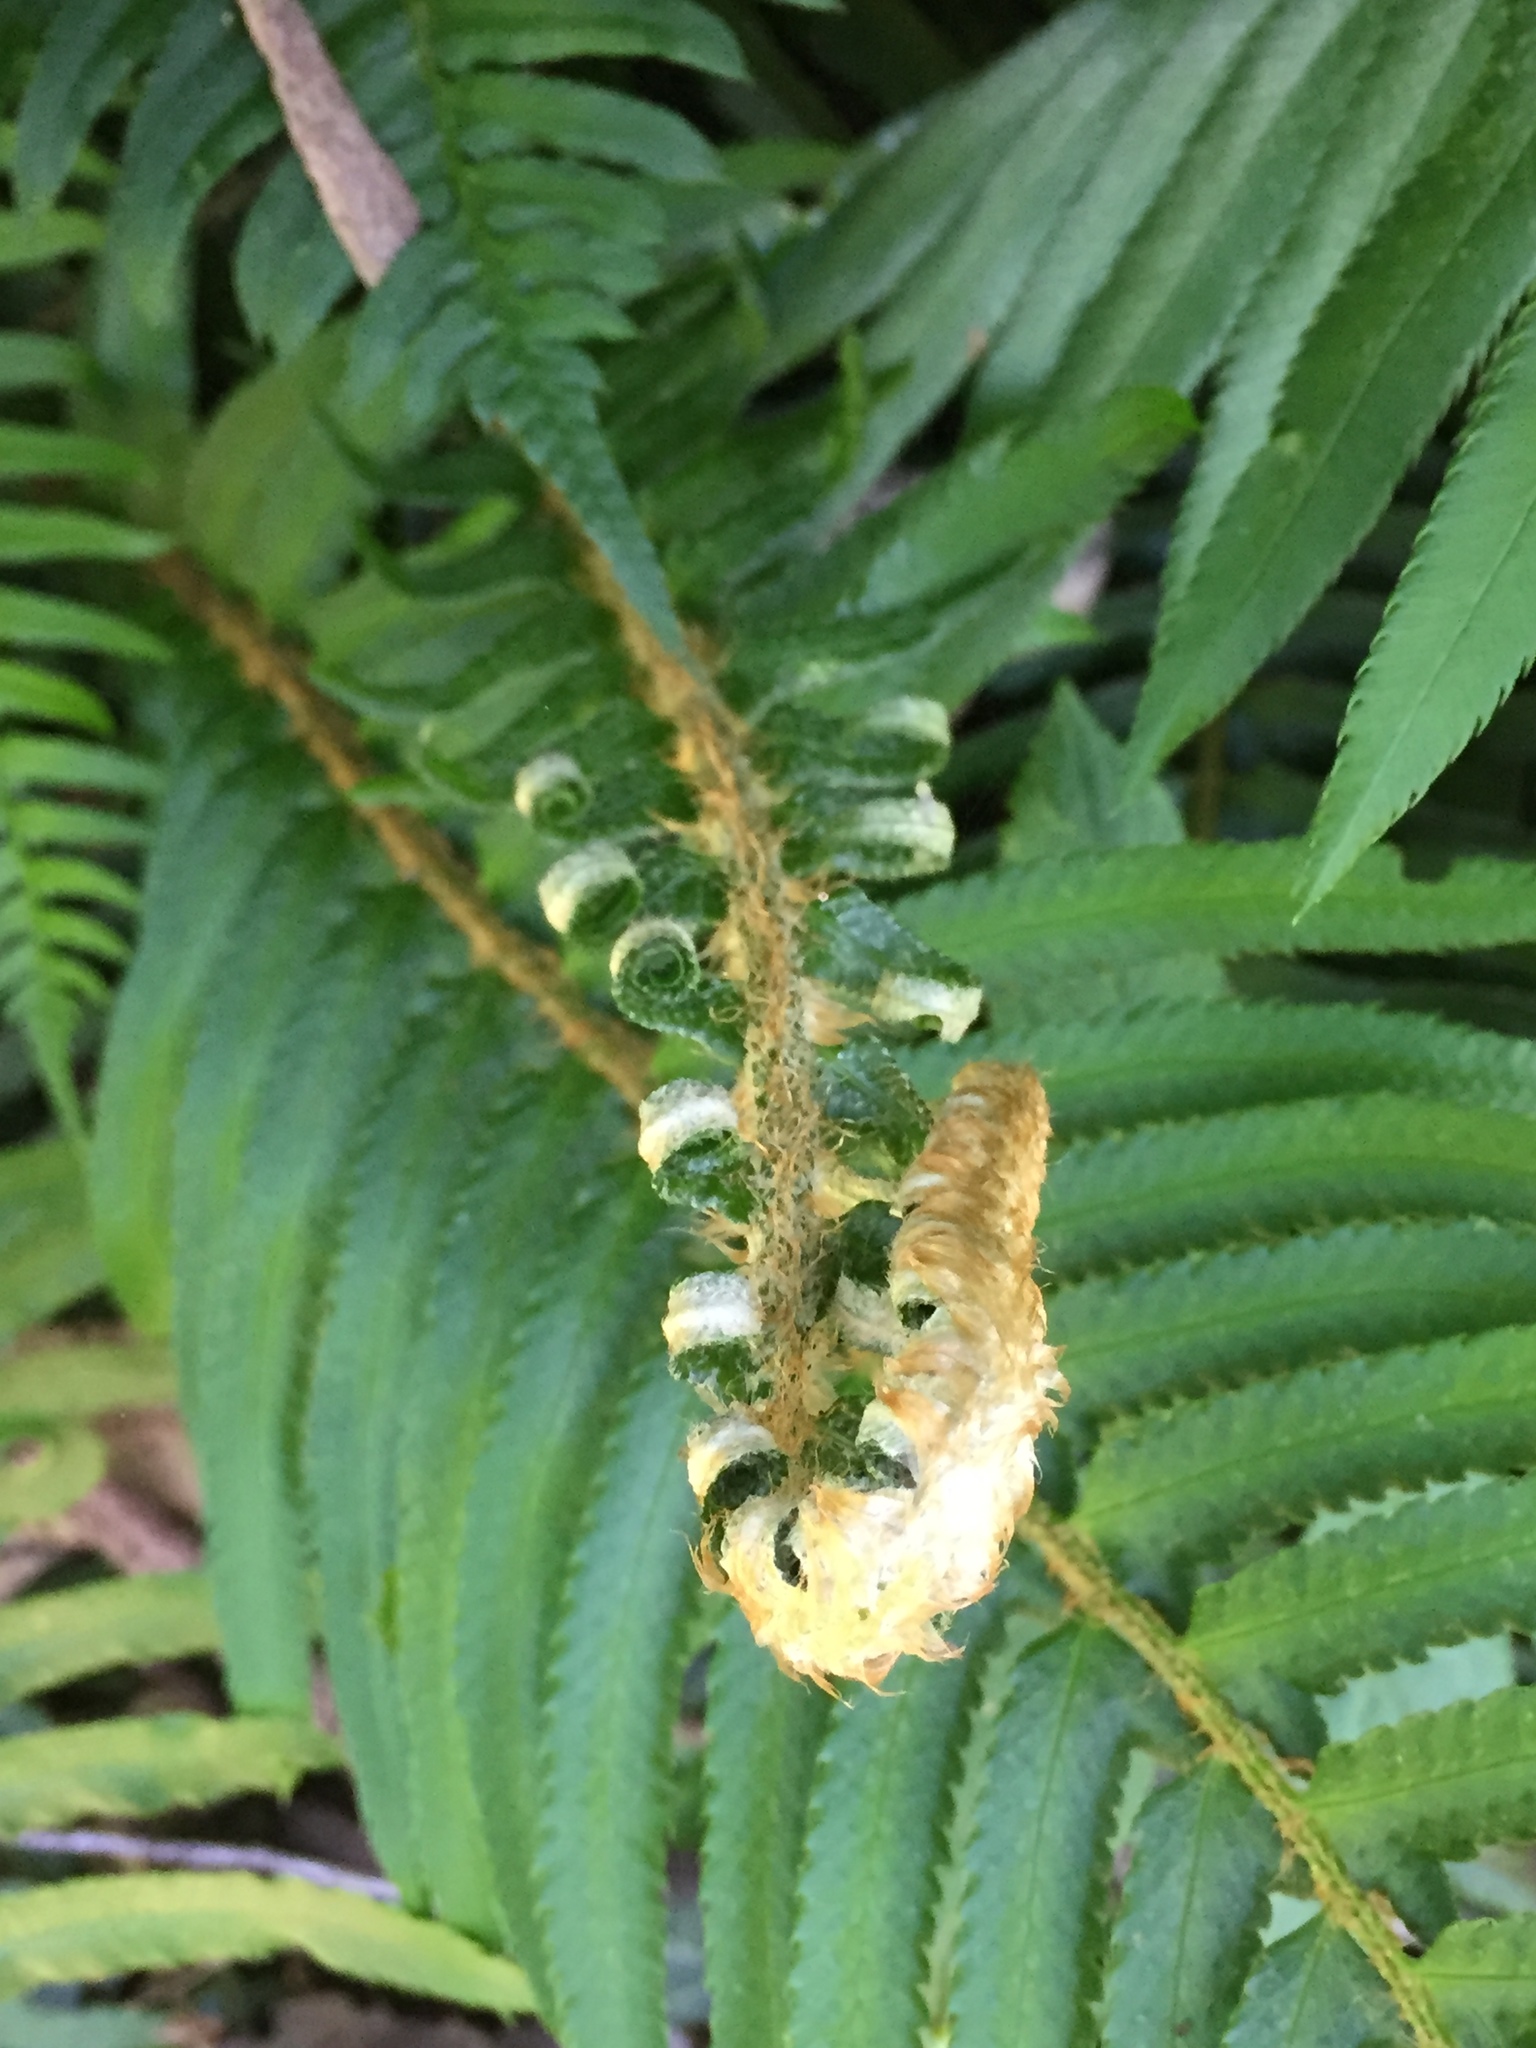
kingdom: Plantae
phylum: Tracheophyta
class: Polypodiopsida
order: Polypodiales
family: Dryopteridaceae
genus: Polystichum
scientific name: Polystichum munitum
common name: Western sword-fern
